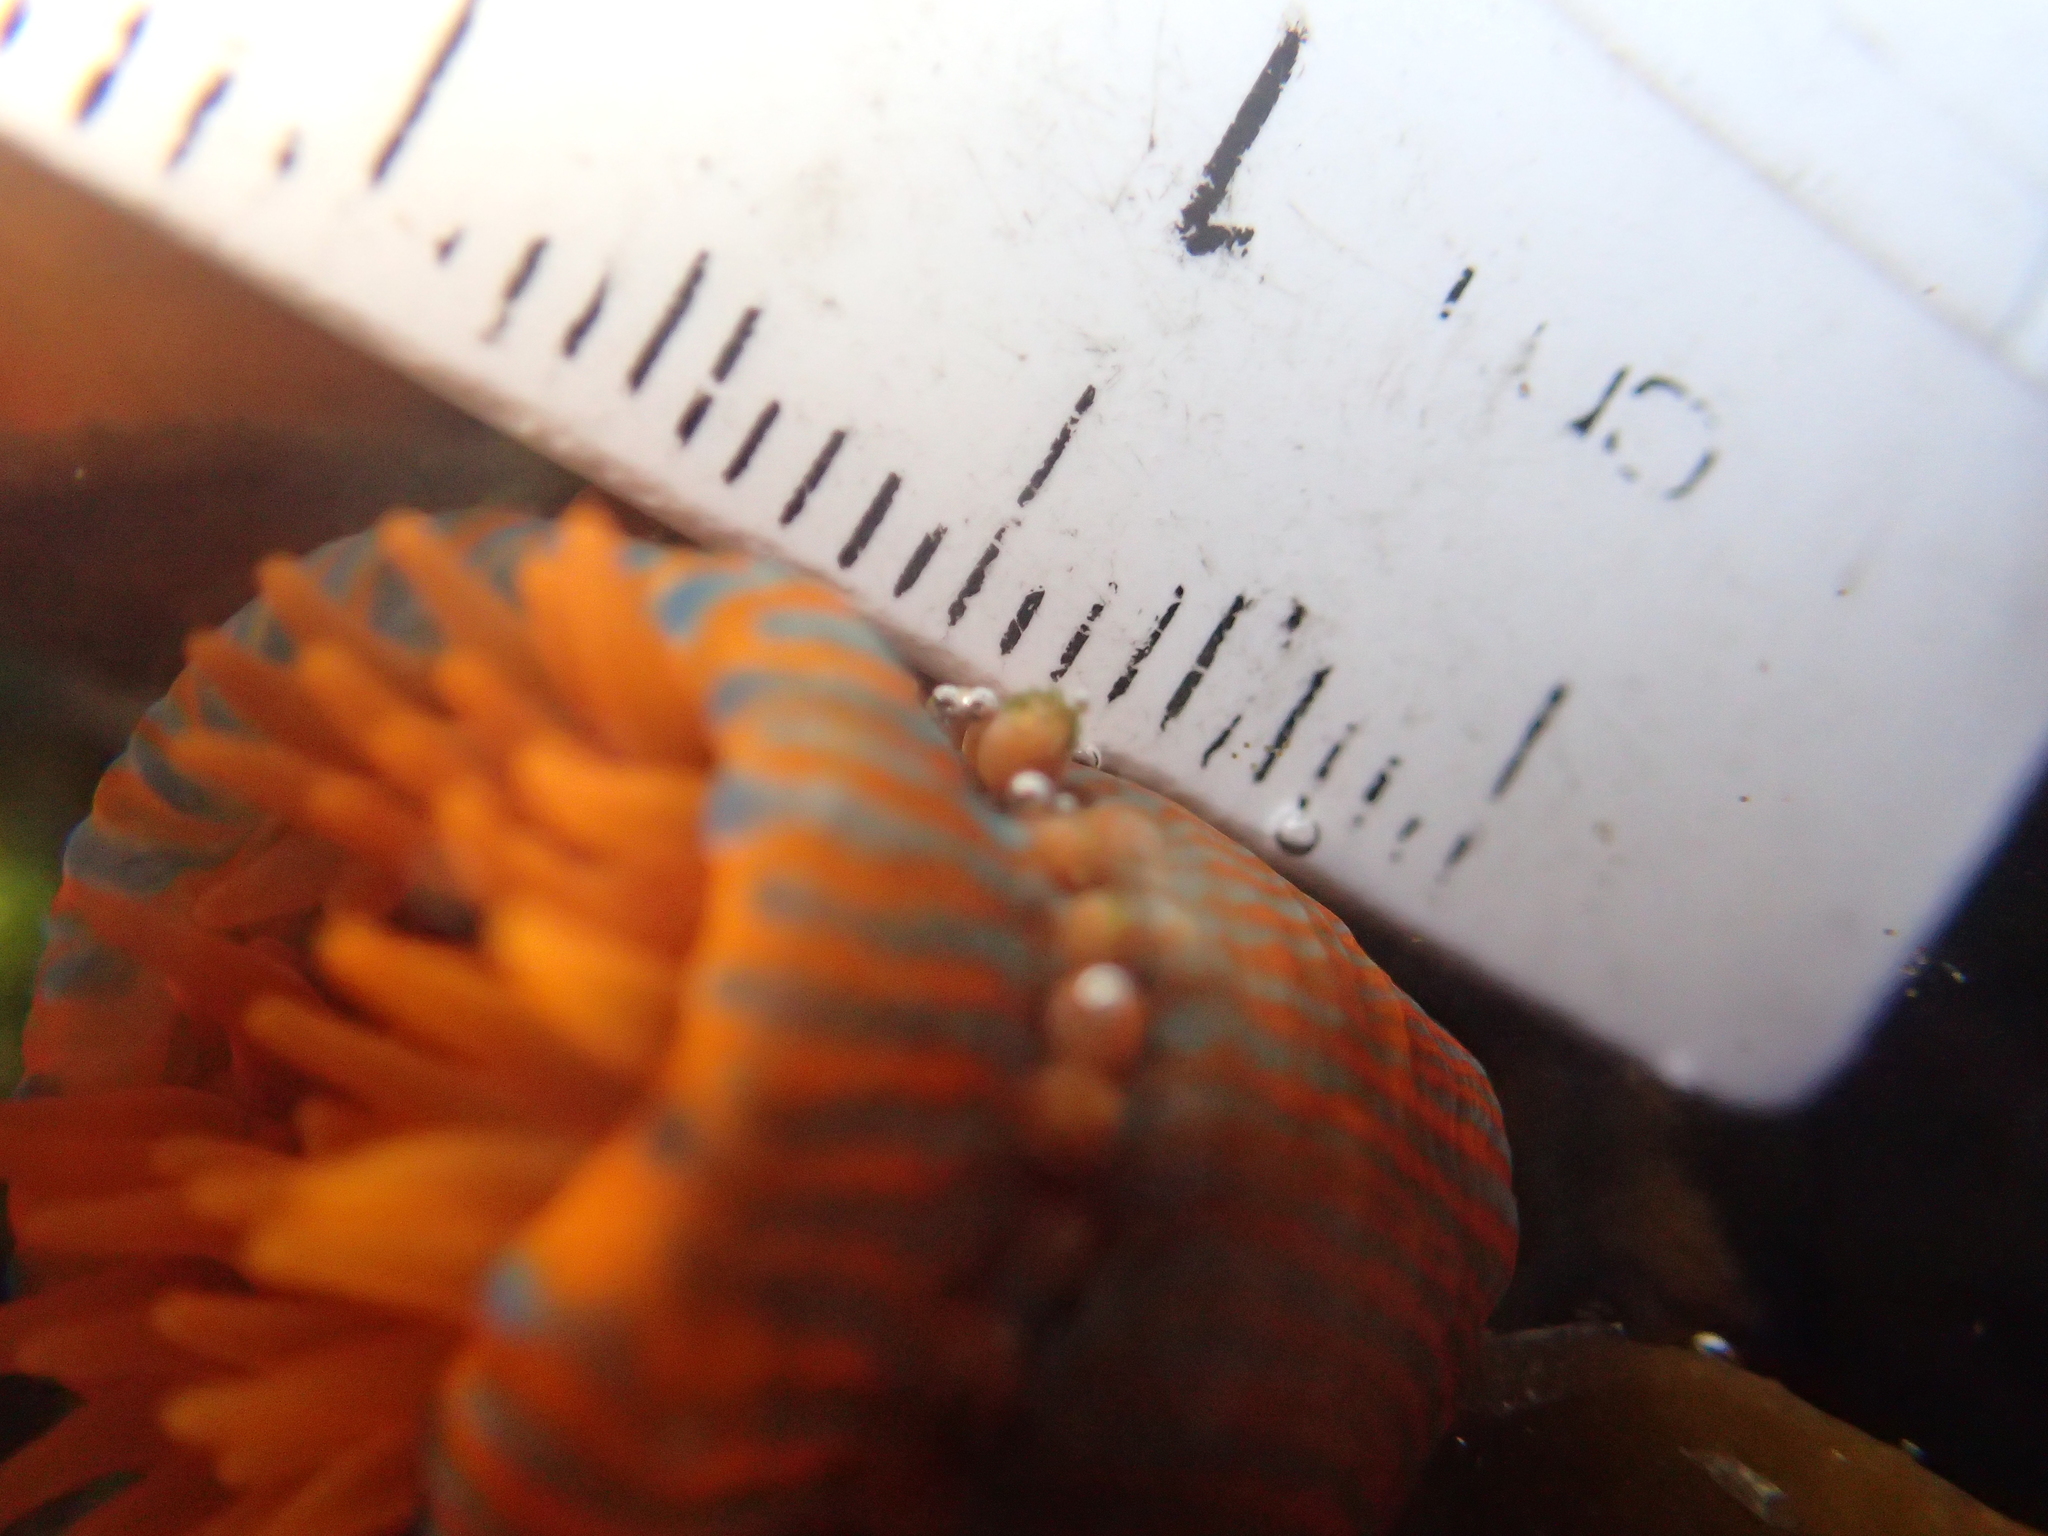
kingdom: Animalia
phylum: Cnidaria
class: Anthozoa
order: Actiniaria
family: Actiniidae
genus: Epiactis
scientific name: Epiactis
